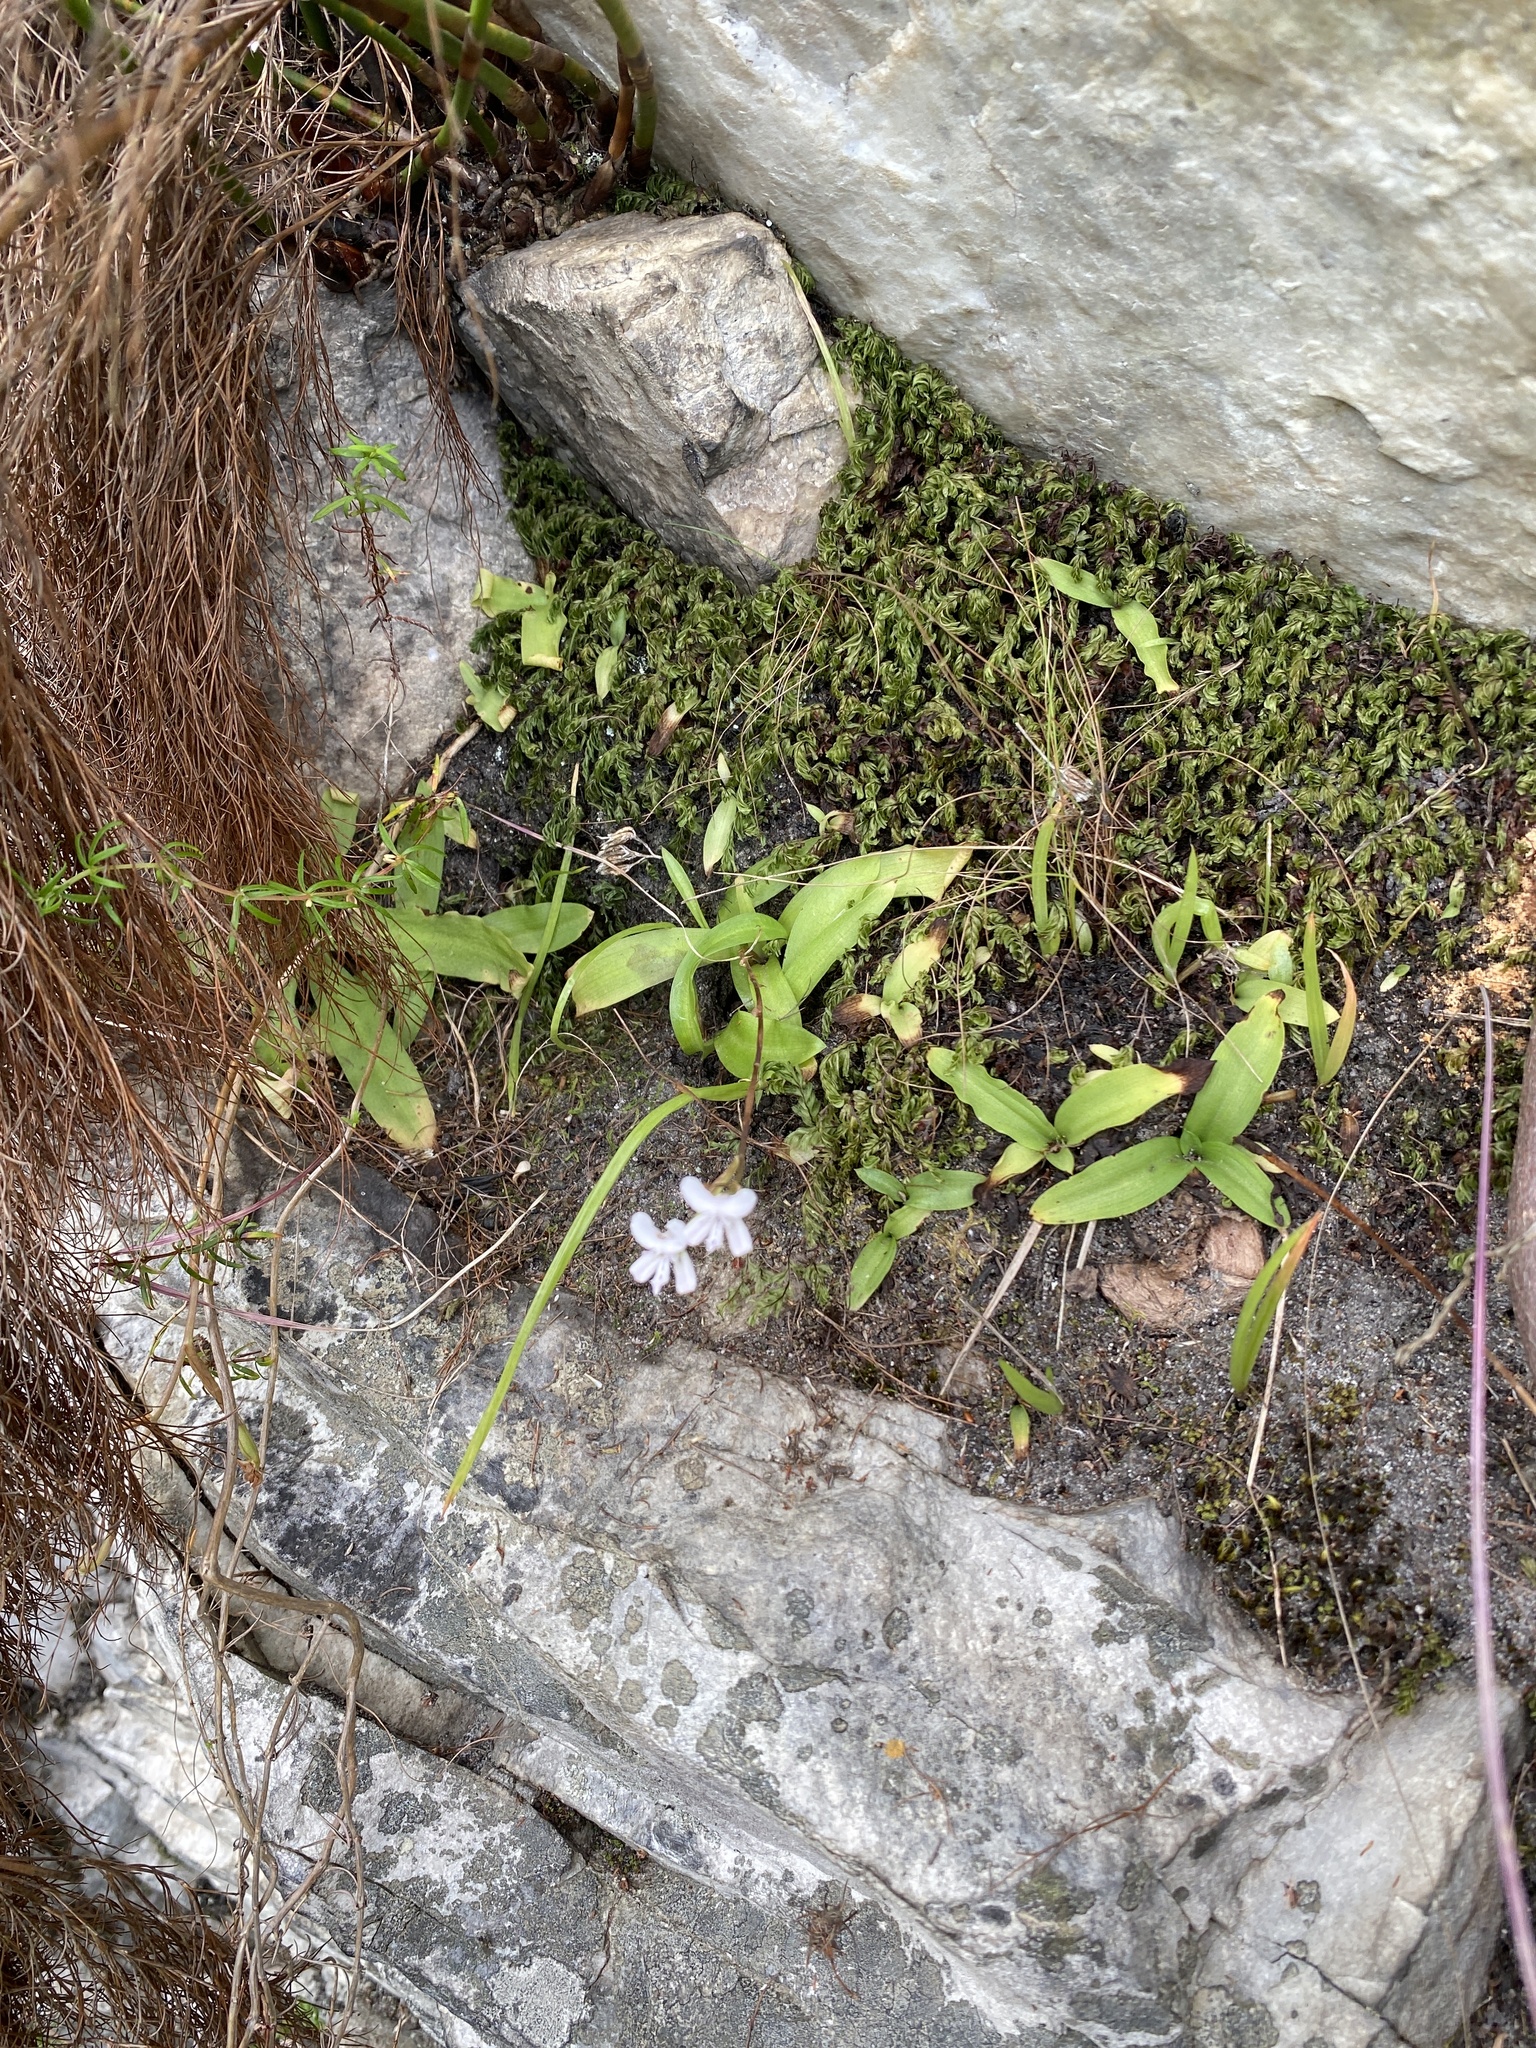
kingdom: Plantae
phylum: Tracheophyta
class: Liliopsida
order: Asparagales
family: Orchidaceae
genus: Disa
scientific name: Disa sagittalis
